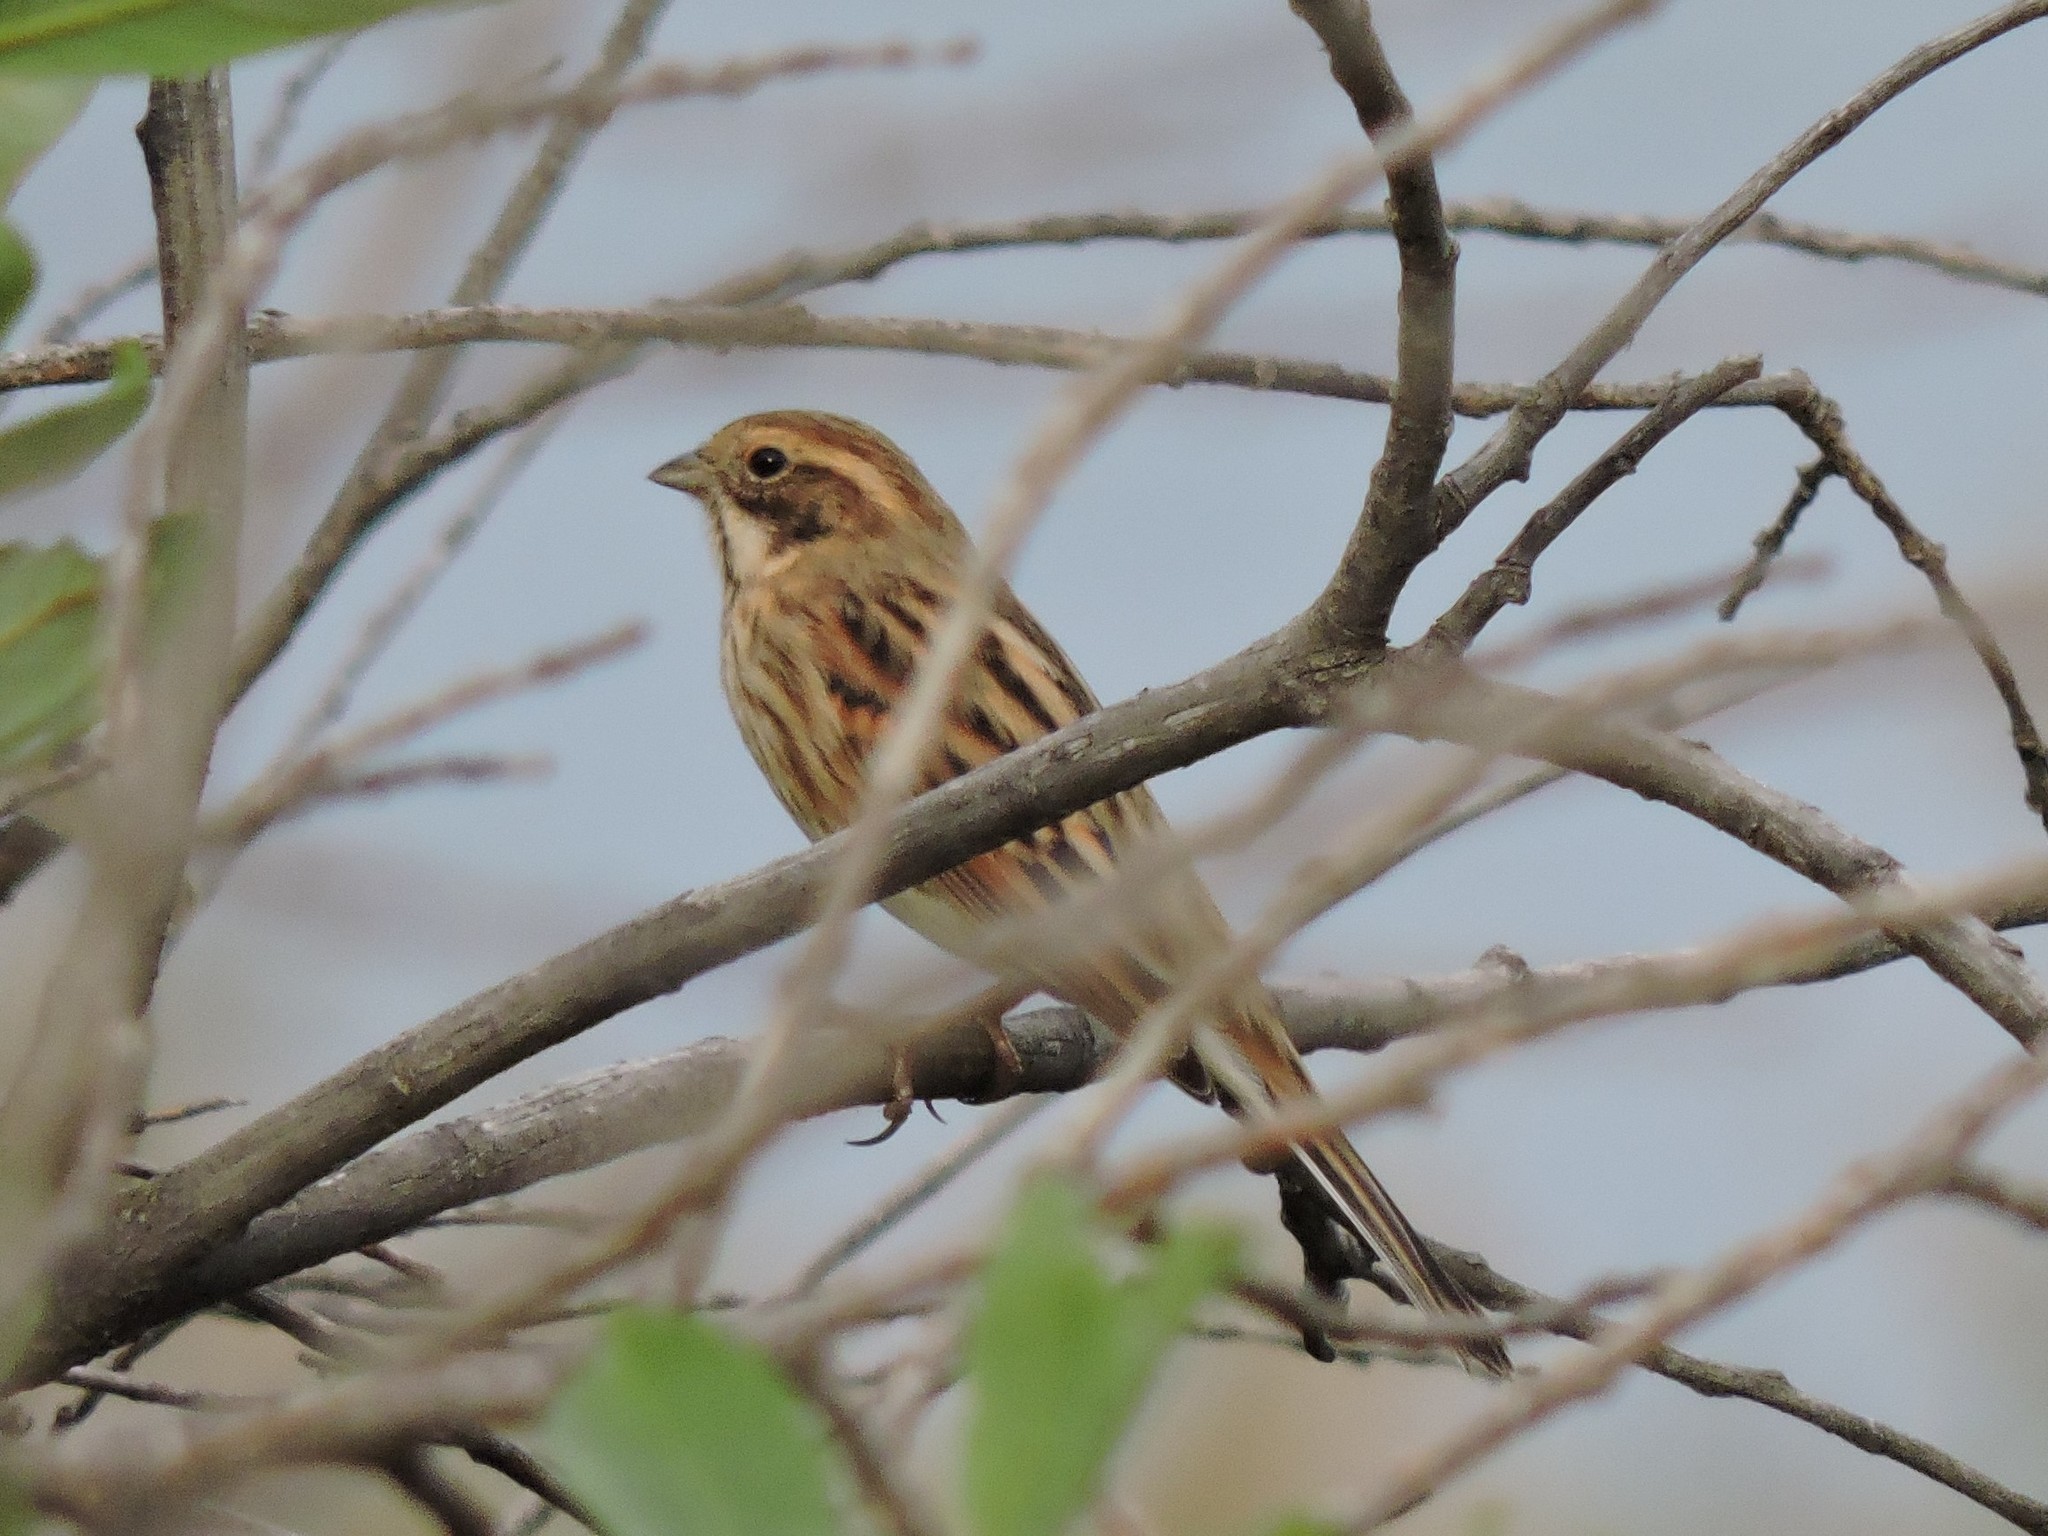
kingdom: Animalia
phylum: Chordata
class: Aves
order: Passeriformes
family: Emberizidae
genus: Emberiza
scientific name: Emberiza schoeniclus
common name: Reed bunting
